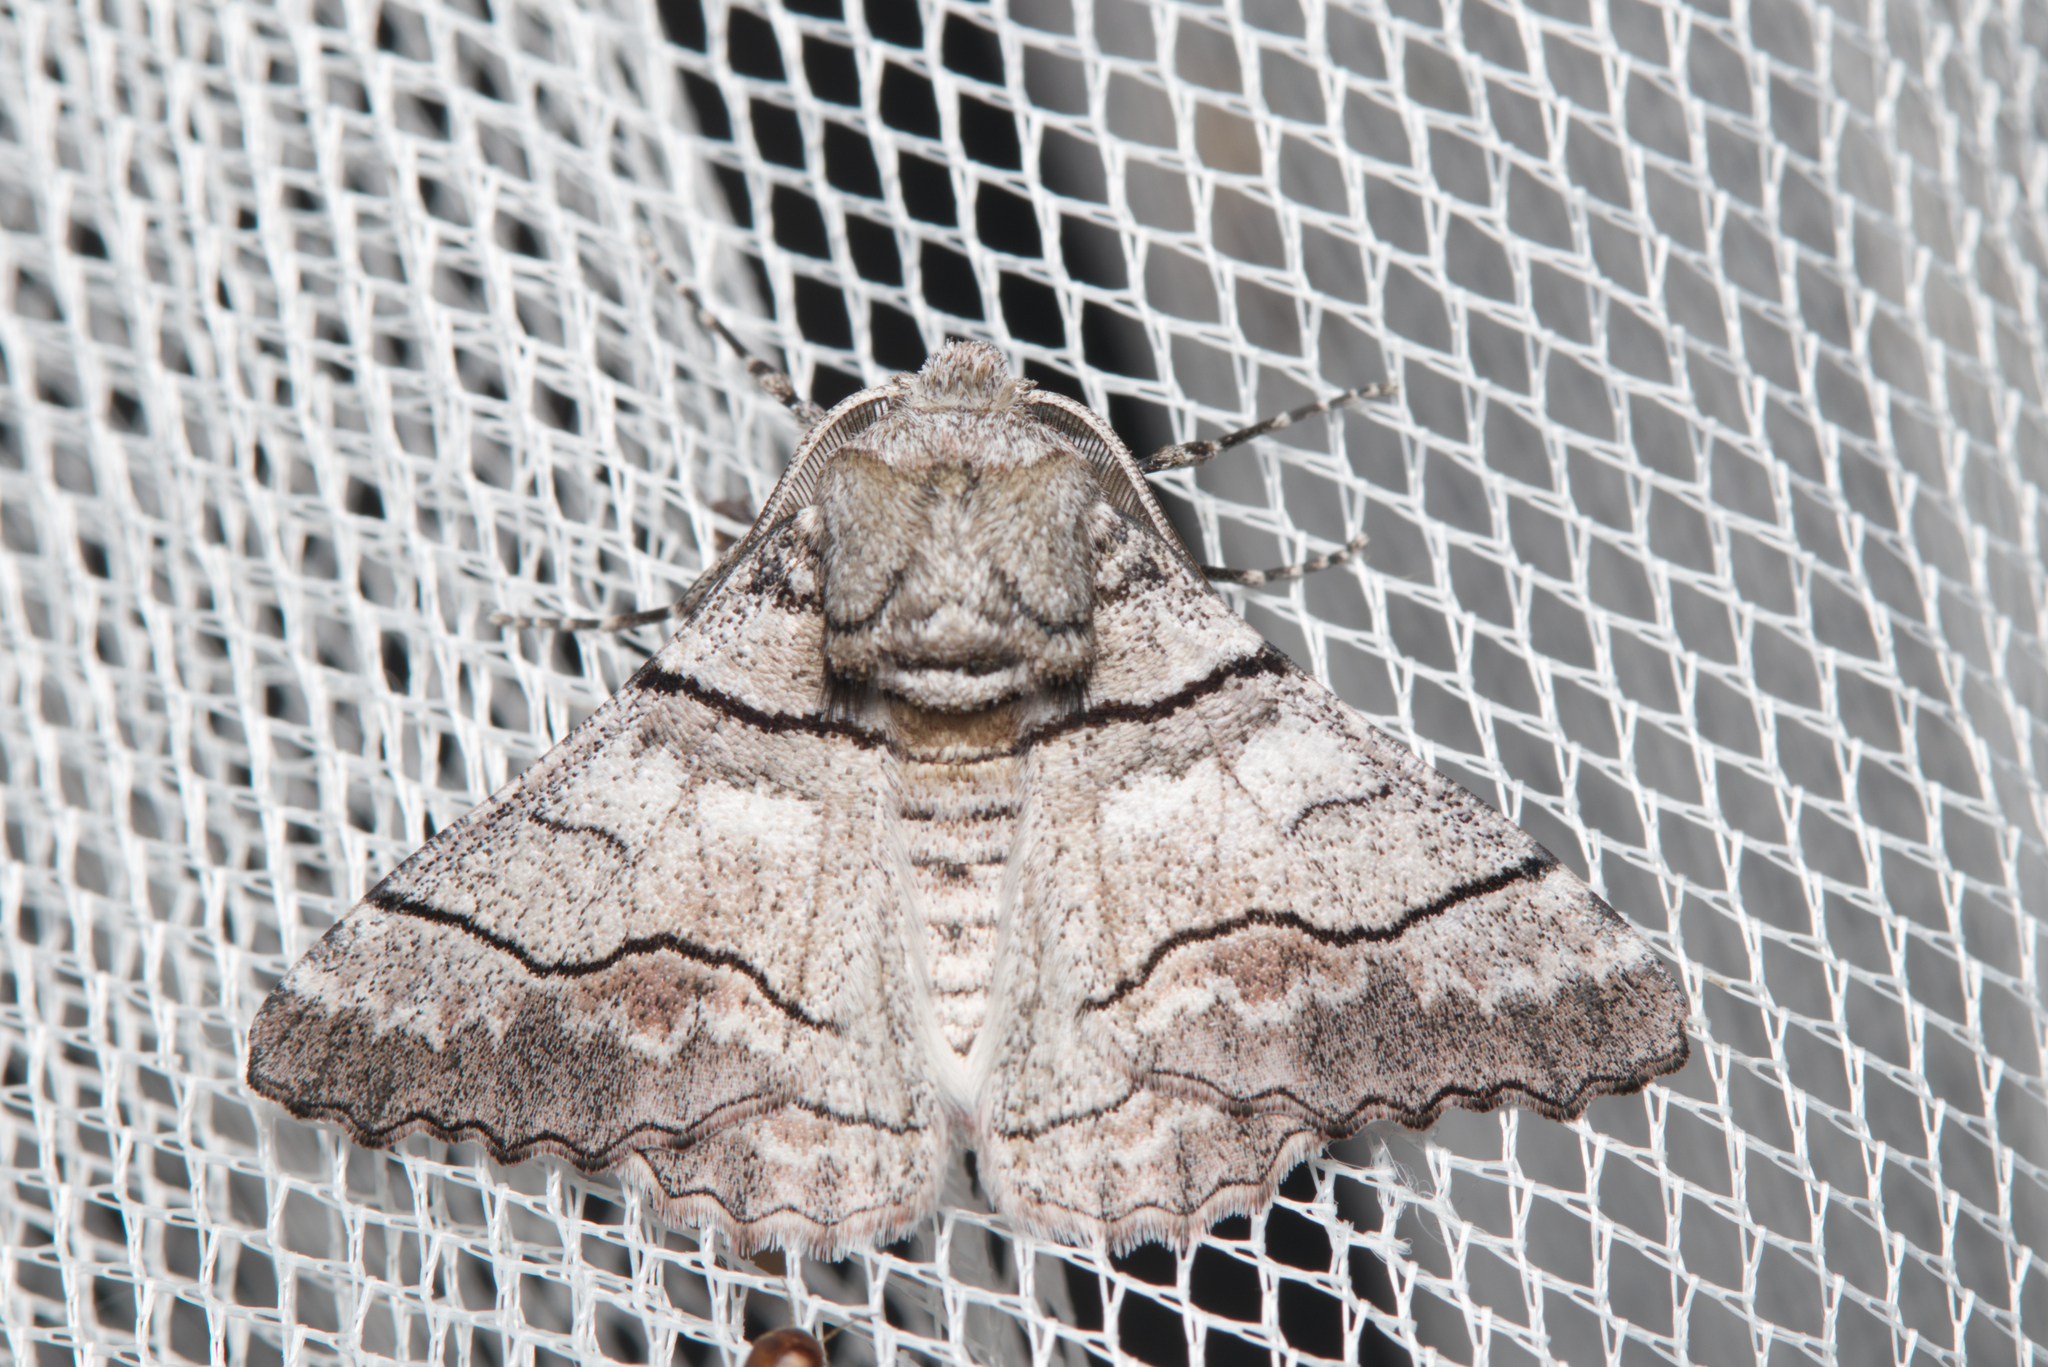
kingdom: Animalia
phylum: Arthropoda
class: Insecta
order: Lepidoptera
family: Geometridae
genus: Hypobapta
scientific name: Hypobapta diffundens
